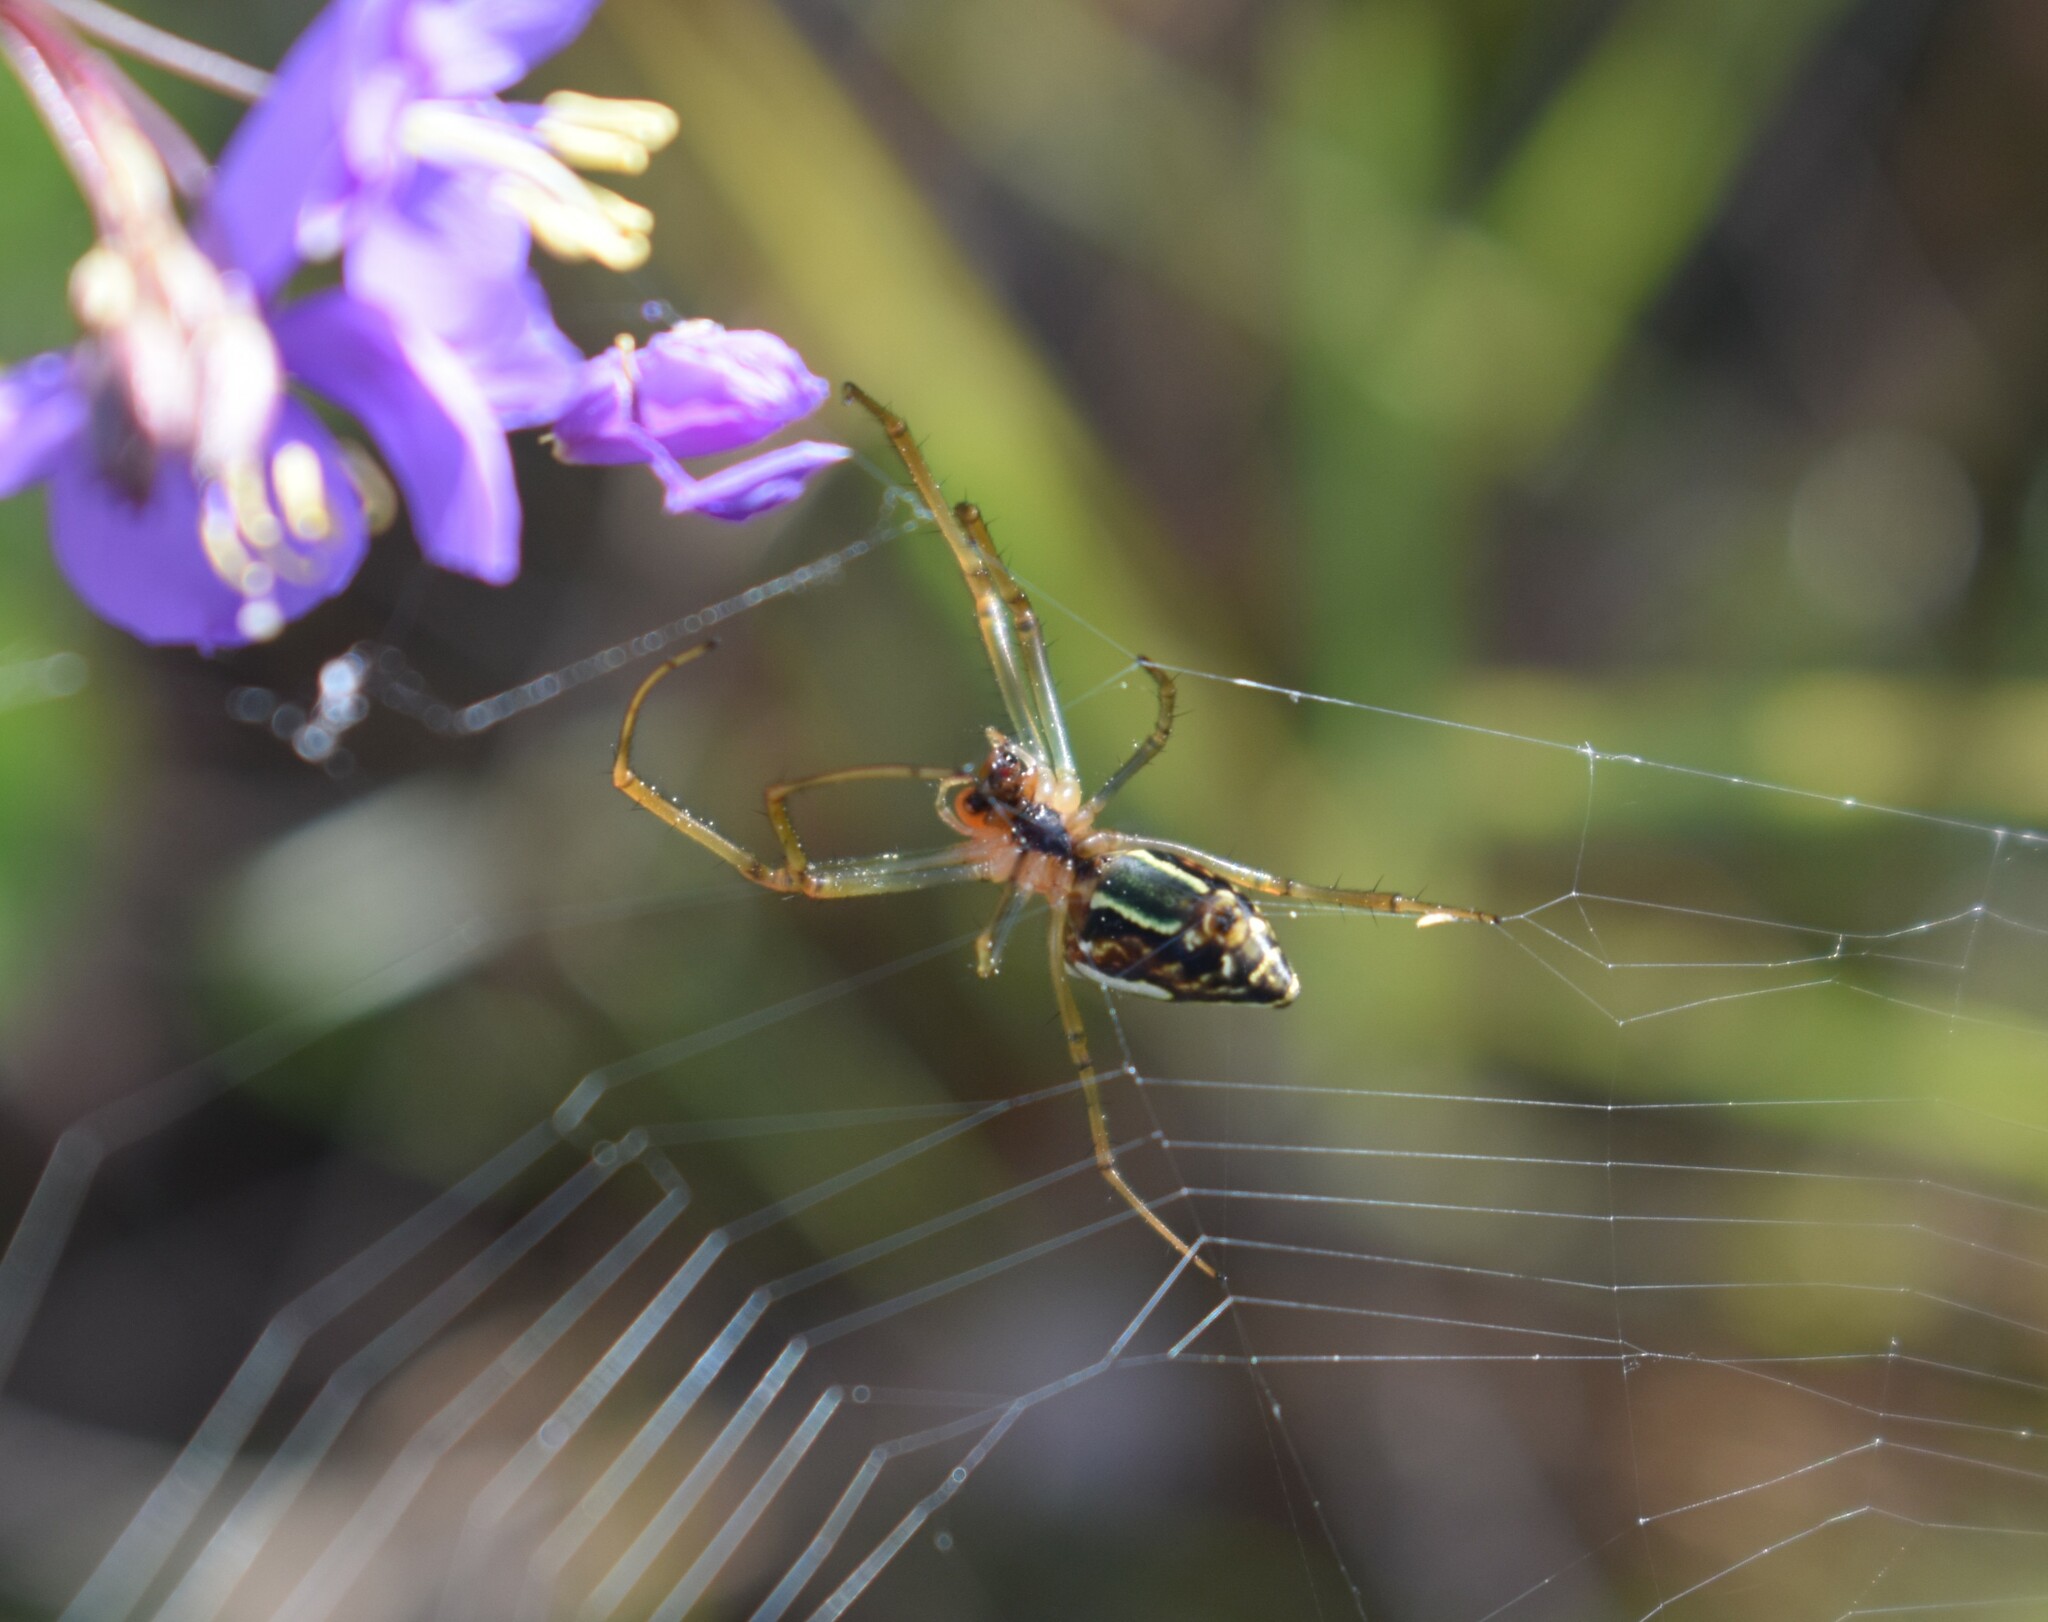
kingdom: Animalia
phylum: Arthropoda
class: Arachnida
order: Araneae
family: Tetragnathidae
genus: Leucauge
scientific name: Leucauge festiva
